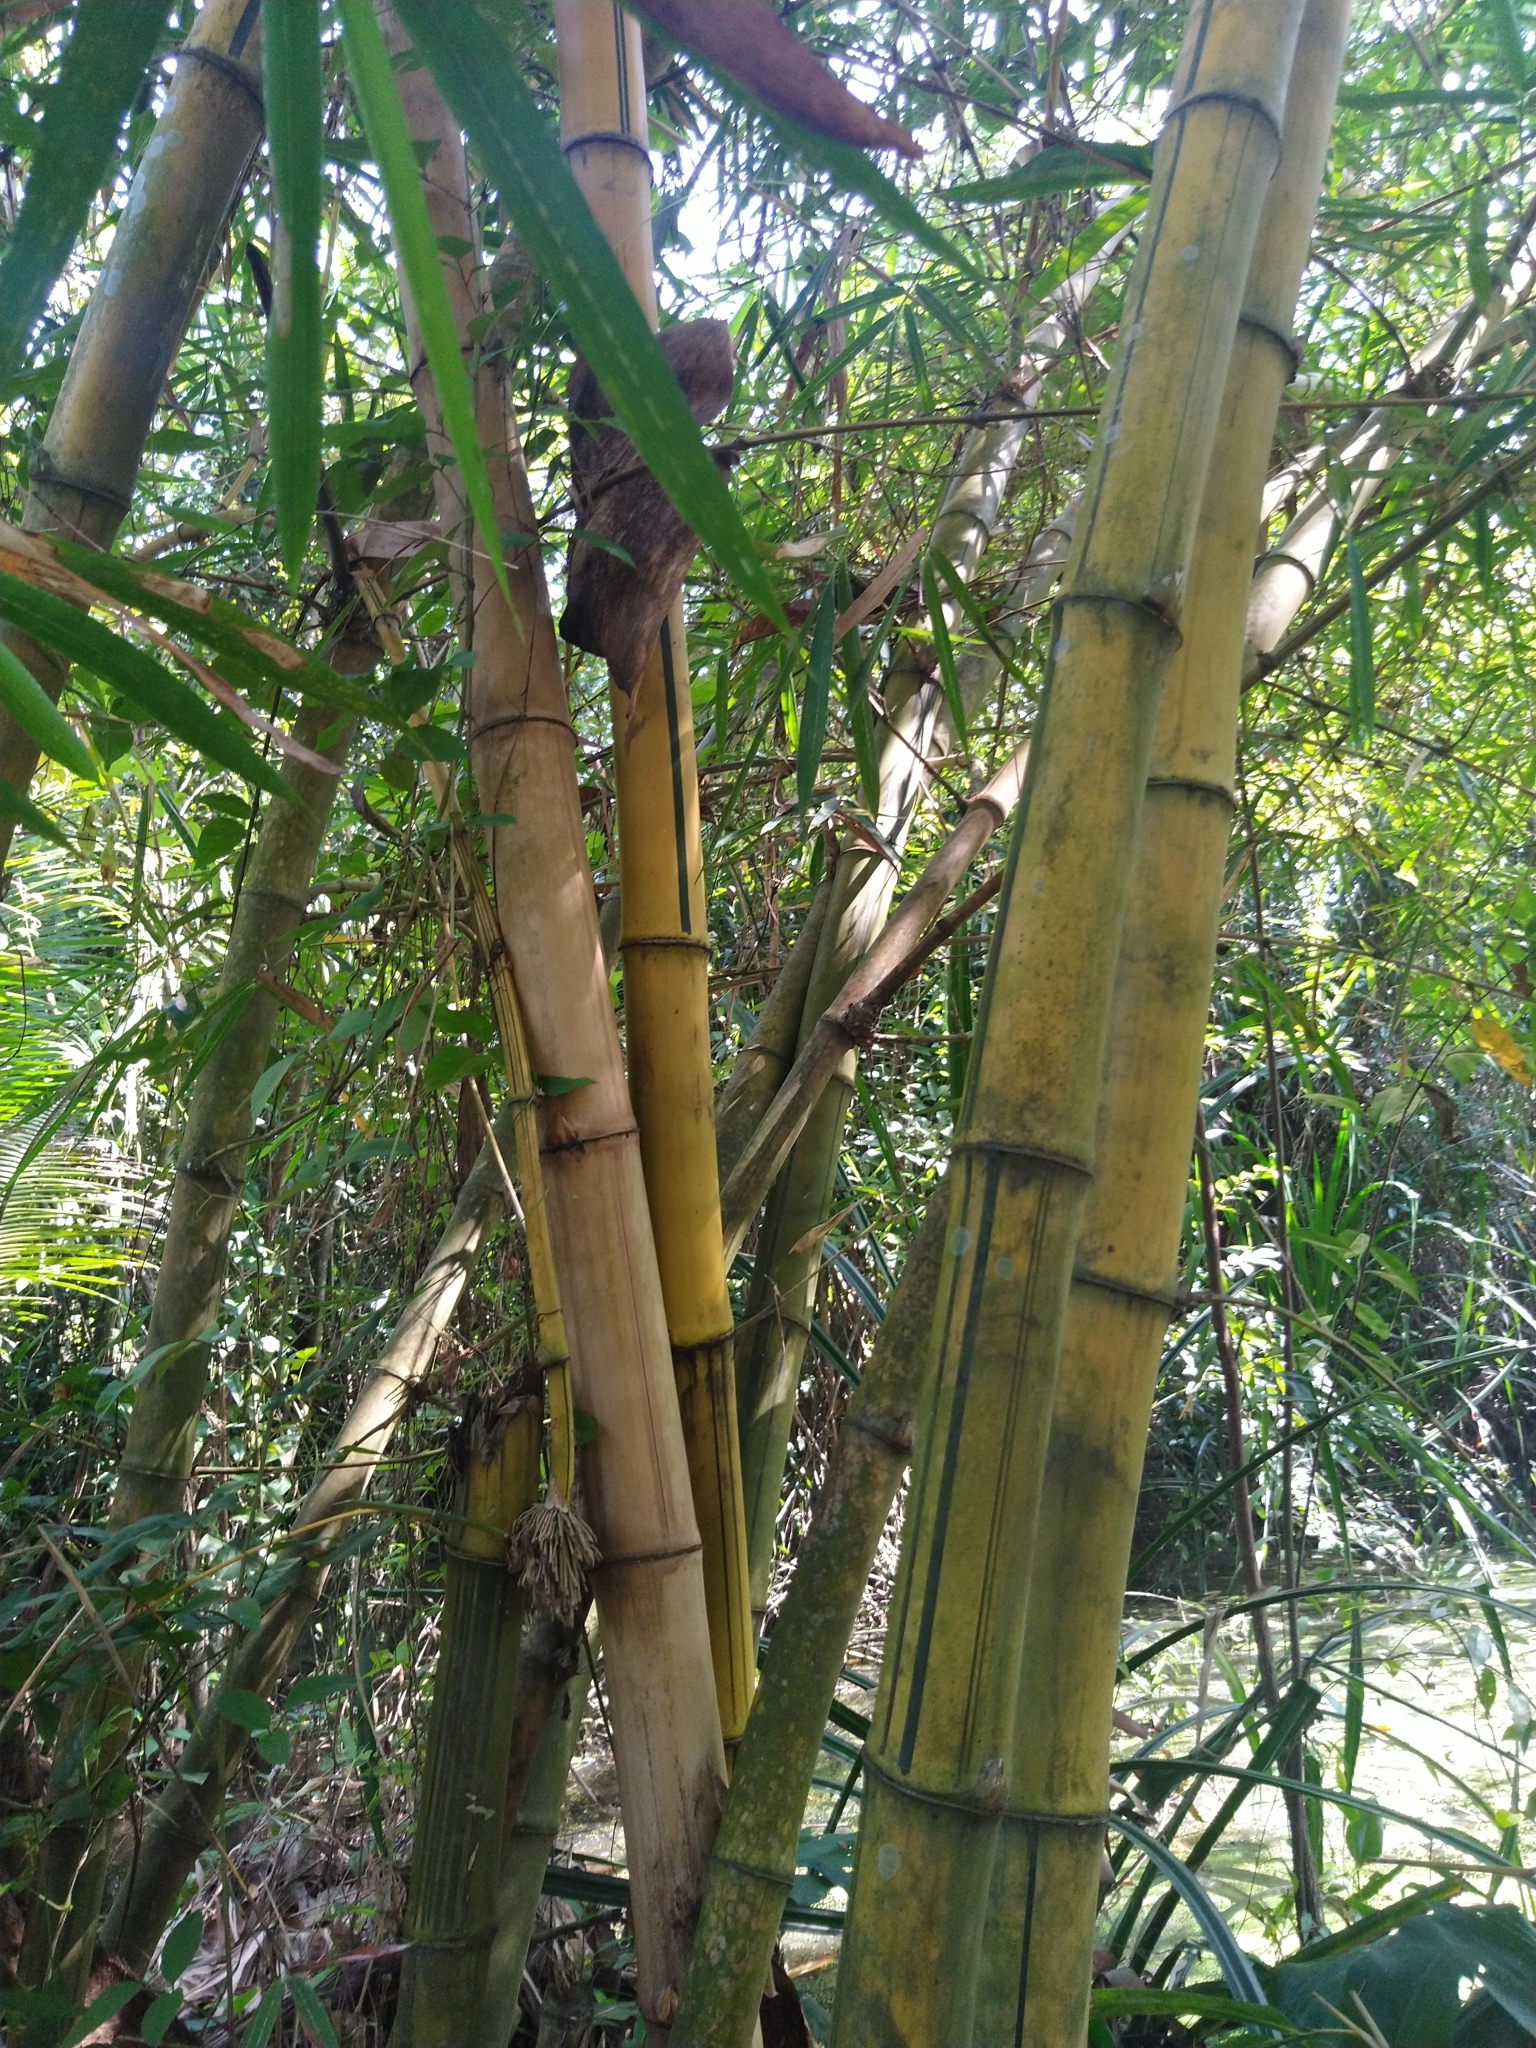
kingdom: Plantae
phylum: Tracheophyta
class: Liliopsida
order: Poales
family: Poaceae
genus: Bambusa
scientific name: Bambusa vulgaris
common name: Common bamboo
